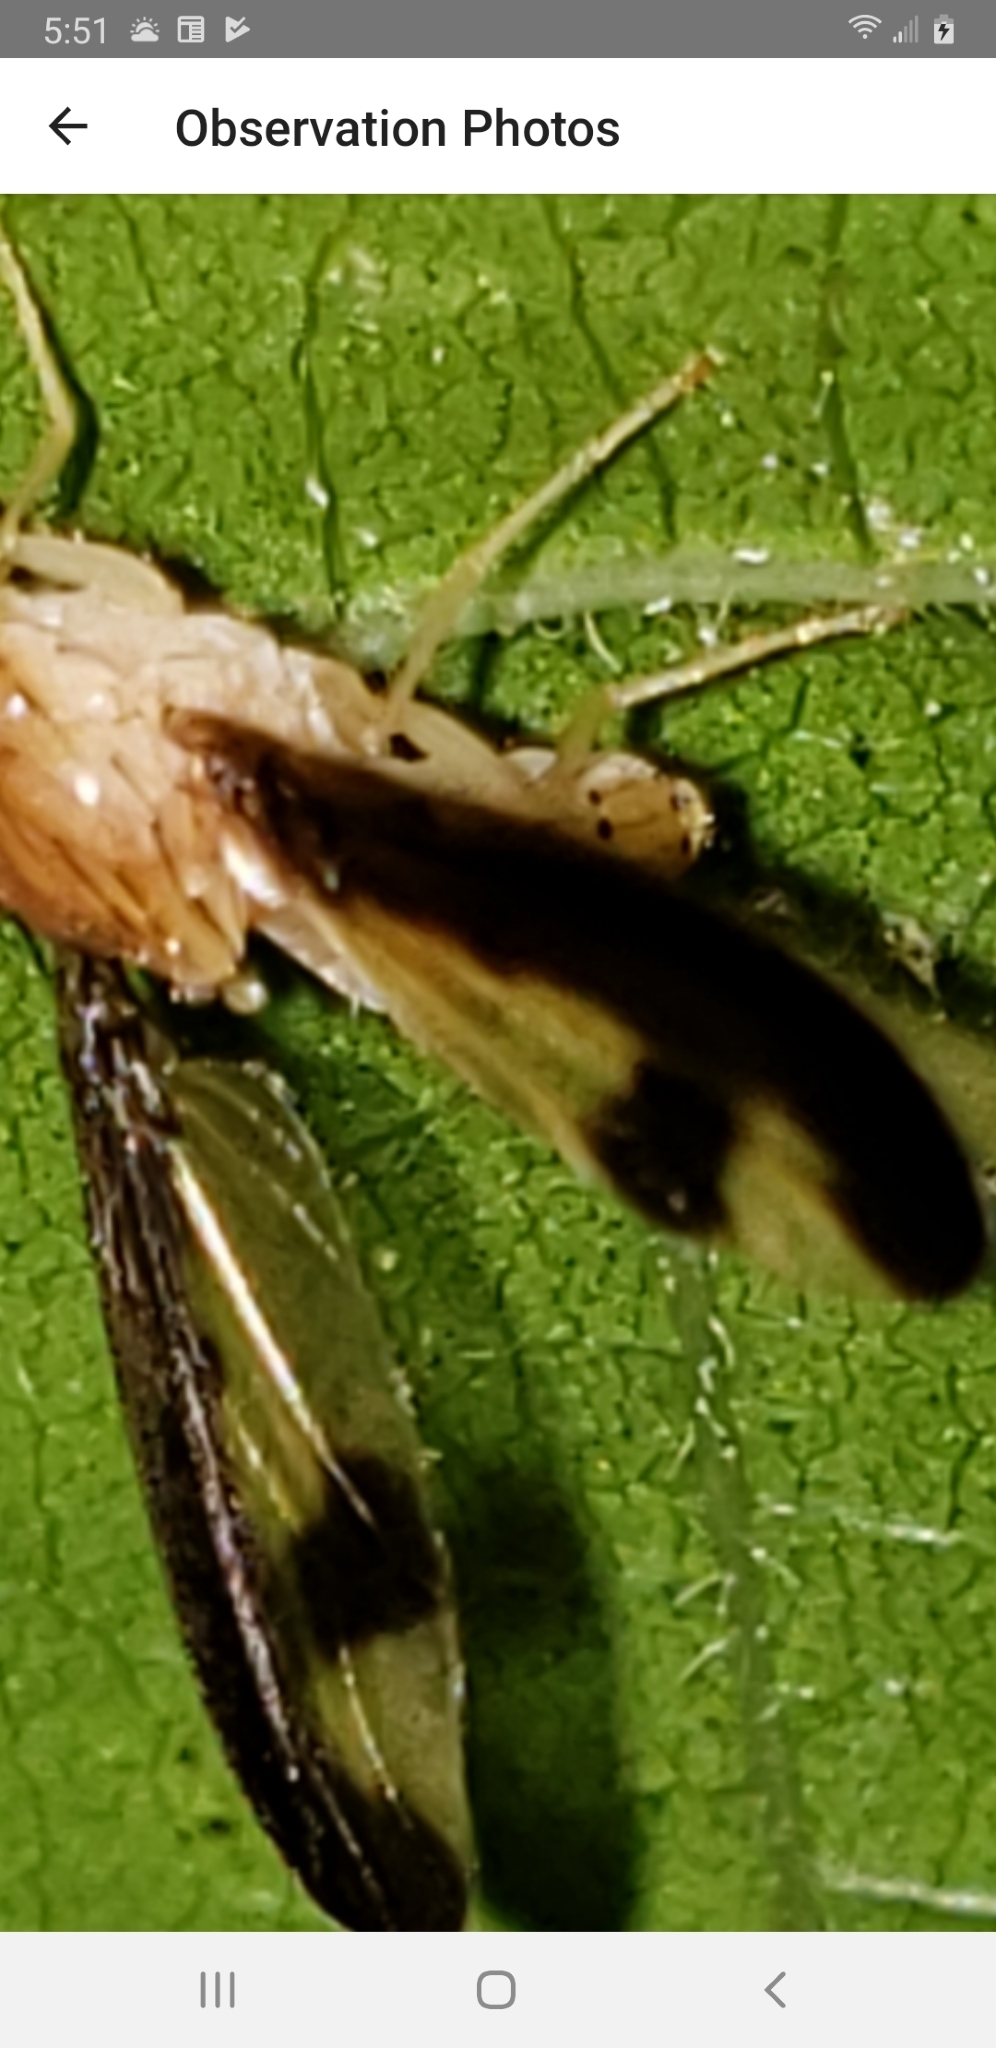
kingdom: Animalia
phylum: Arthropoda
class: Insecta
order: Diptera
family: Pallopteridae
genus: Toxonevra
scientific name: Toxonevra superba
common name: Antlered flutter fly
